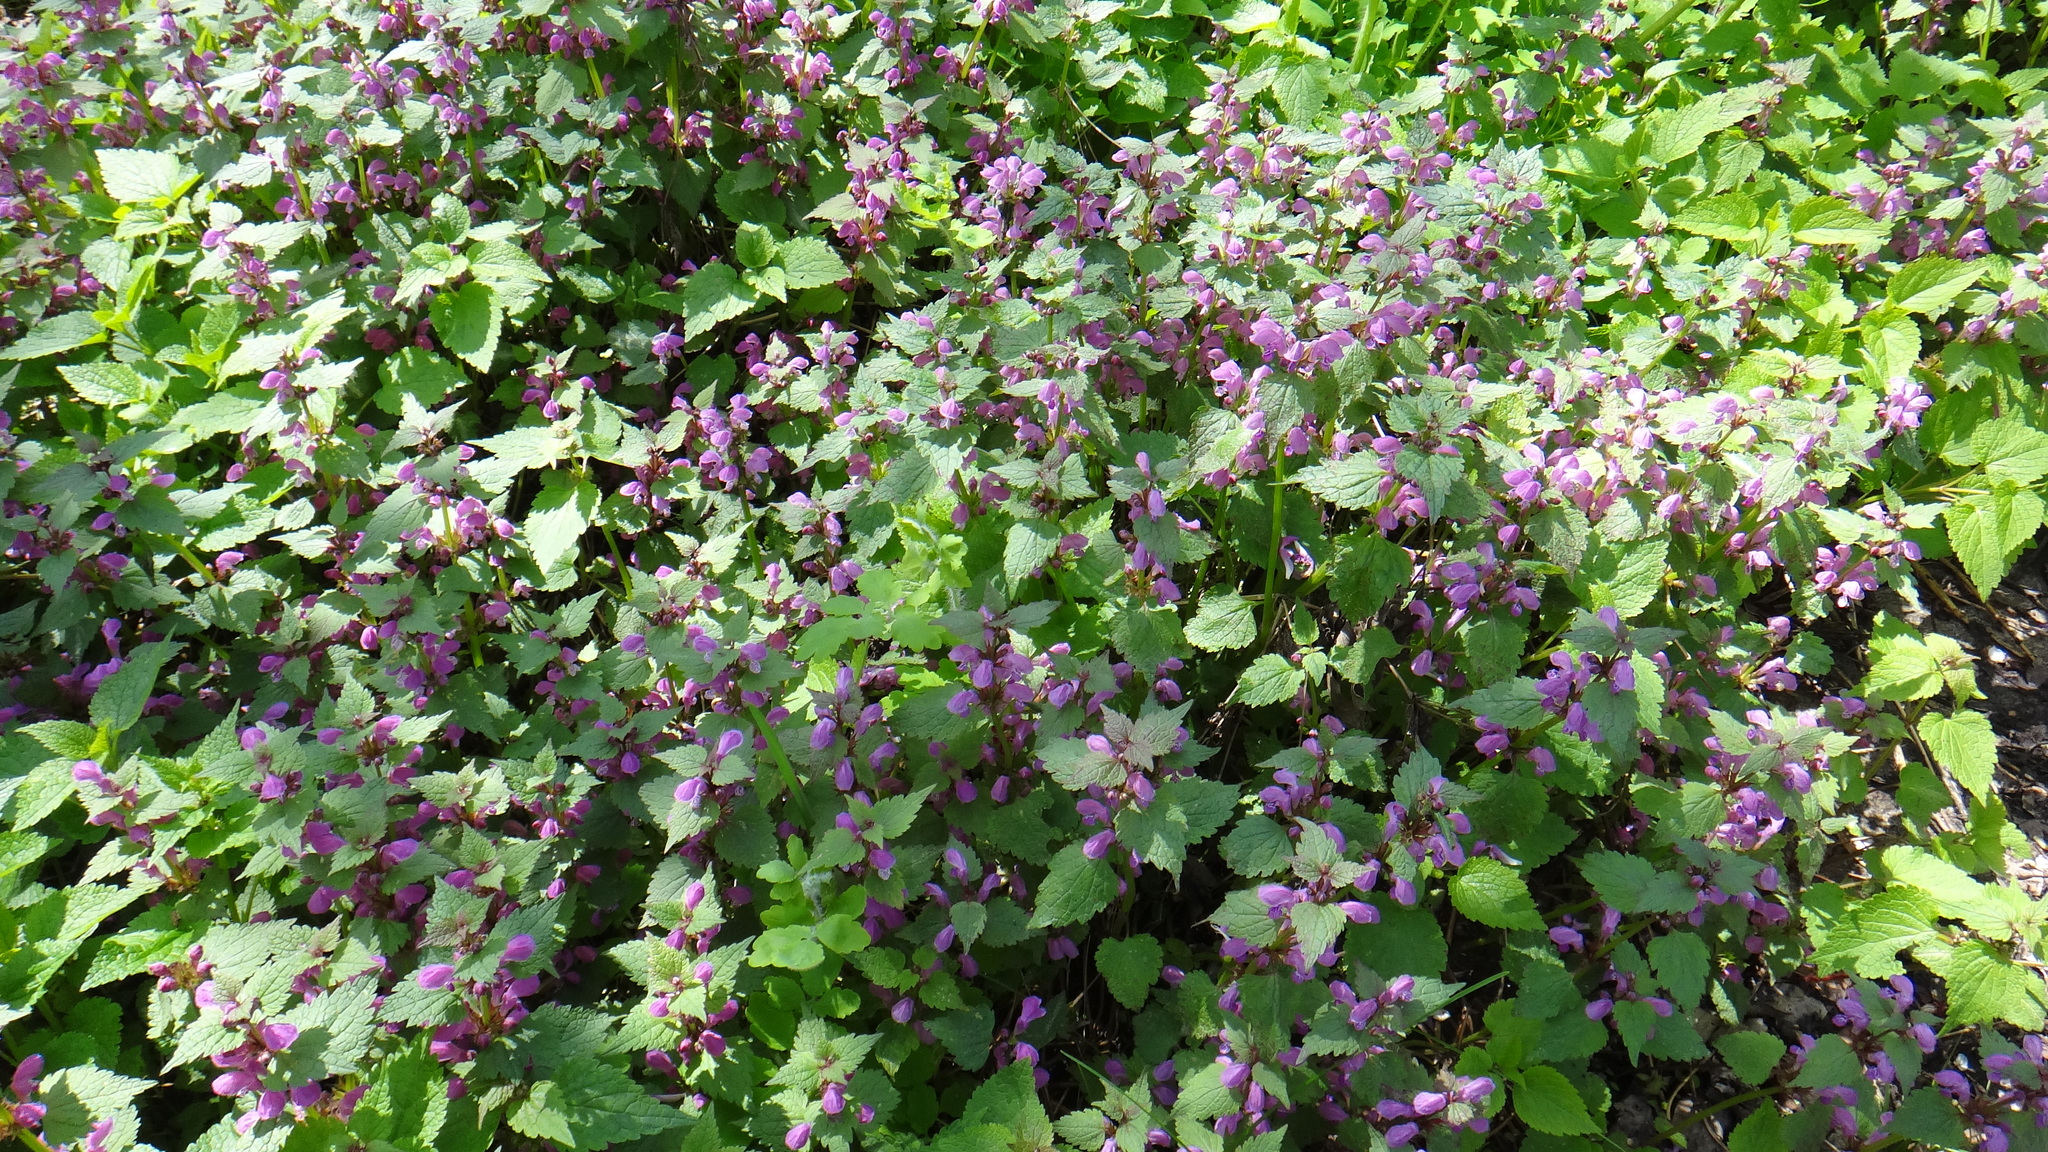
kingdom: Plantae
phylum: Tracheophyta
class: Magnoliopsida
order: Lamiales
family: Lamiaceae
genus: Lamium
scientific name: Lamium maculatum
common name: Spotted dead-nettle
